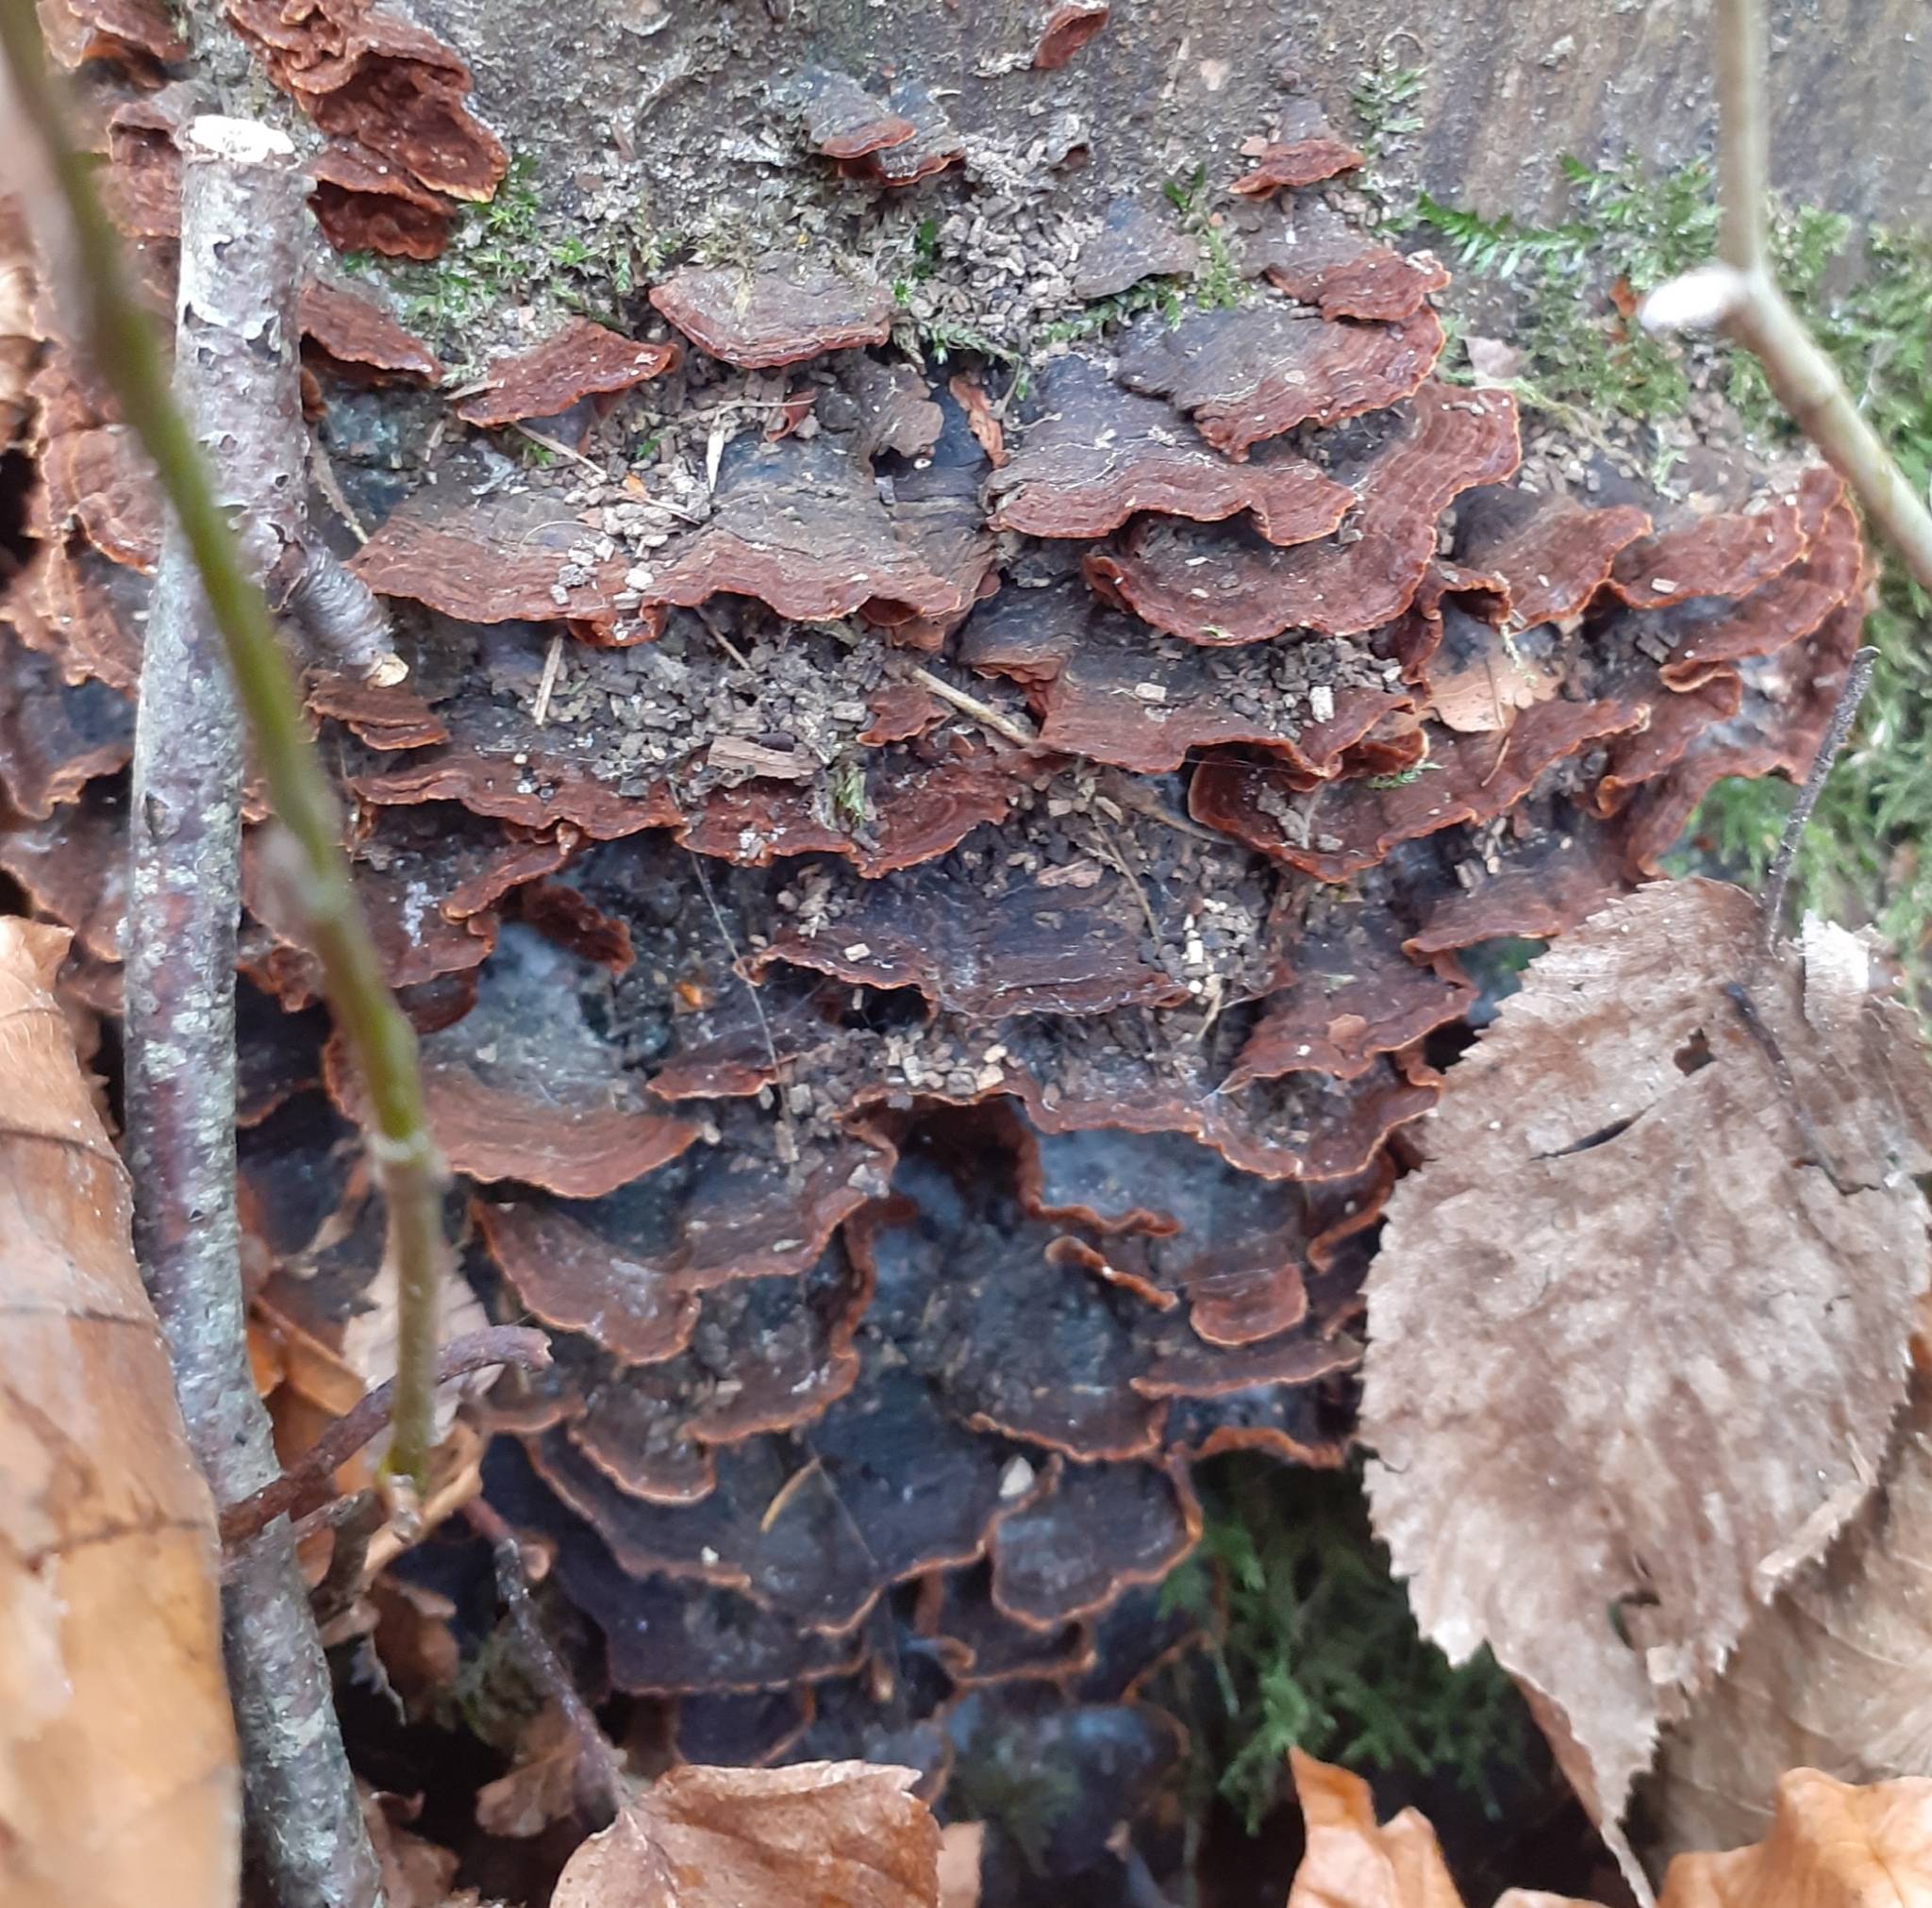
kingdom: Fungi
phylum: Basidiomycota
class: Agaricomycetes
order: Hymenochaetales
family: Hymenochaetaceae
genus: Hymenochaete
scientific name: Hymenochaete rubiginosa
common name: Oak curtain crust
